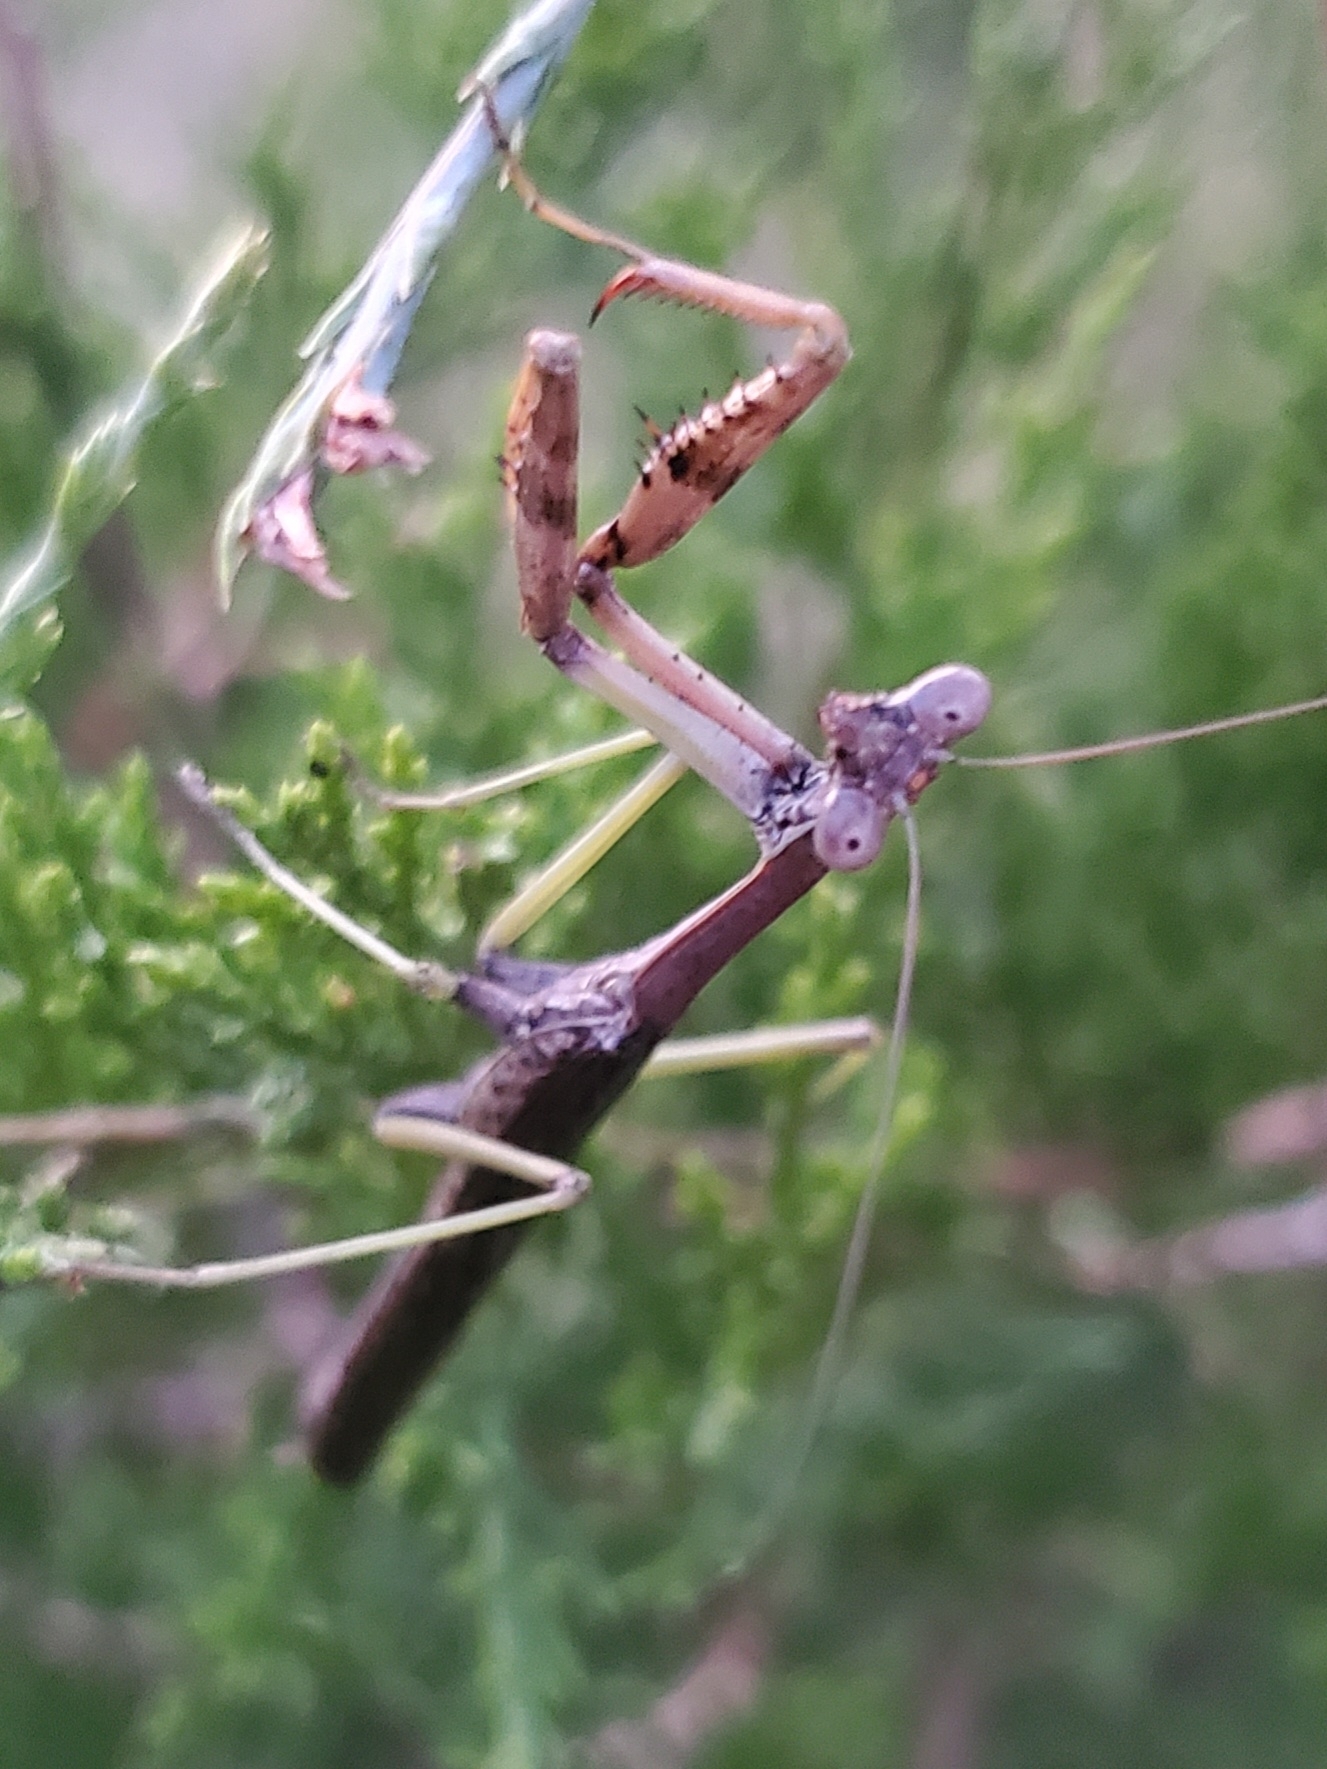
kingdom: Animalia
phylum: Arthropoda
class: Insecta
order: Mantodea
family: Mantidae
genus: Stagmomantis
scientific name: Stagmomantis carolina
